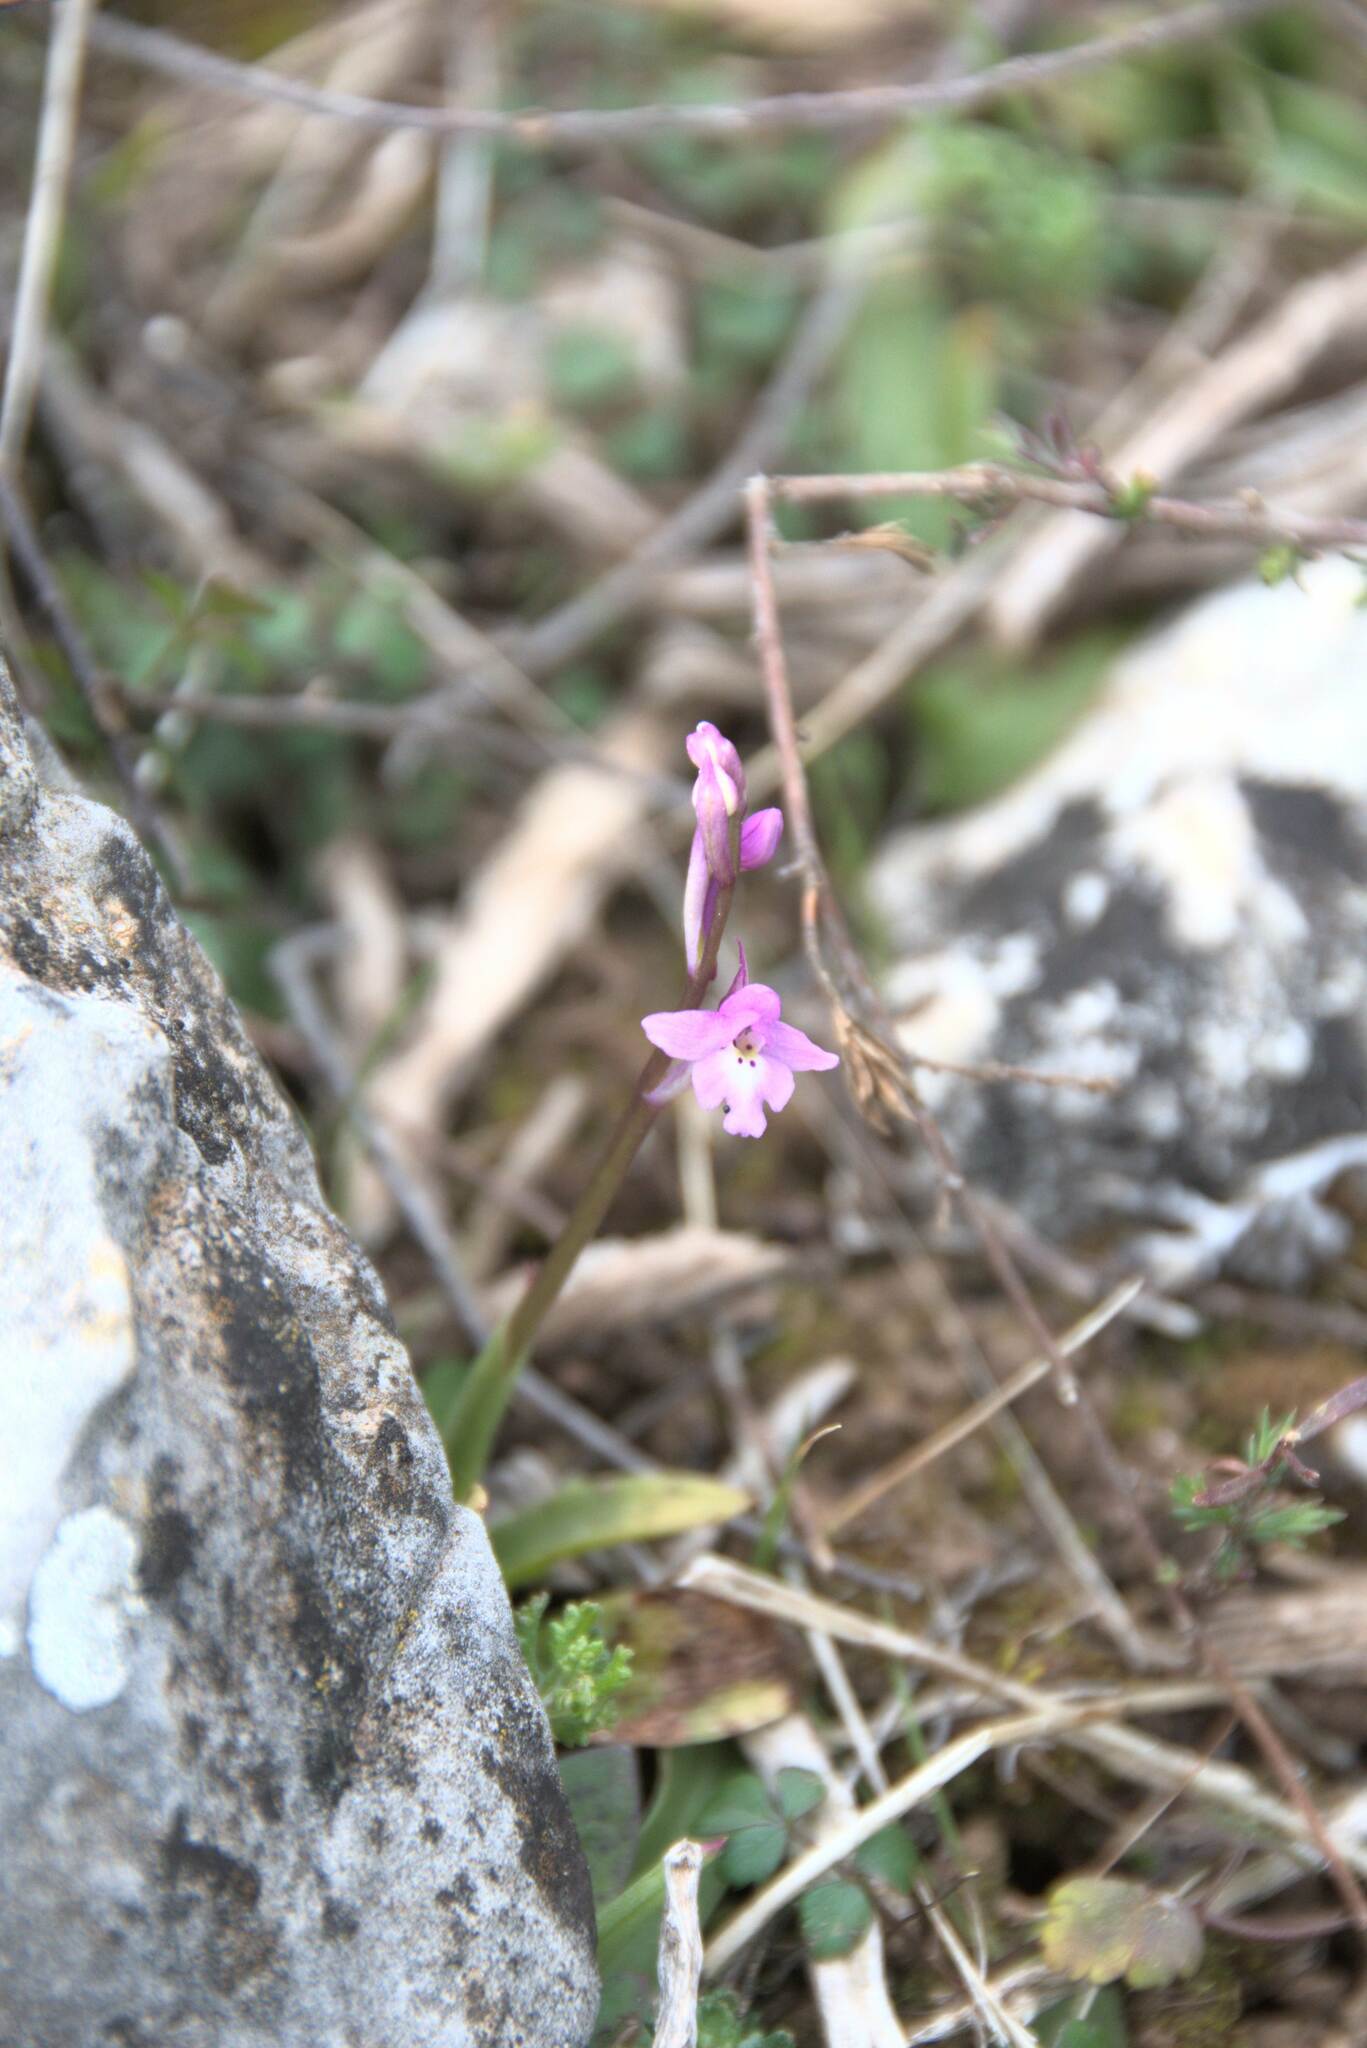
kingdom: Plantae
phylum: Tracheophyta
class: Liliopsida
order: Asparagales
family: Orchidaceae
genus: Orchis
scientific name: Orchis quadripunctata
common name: Four-spotted orchid
